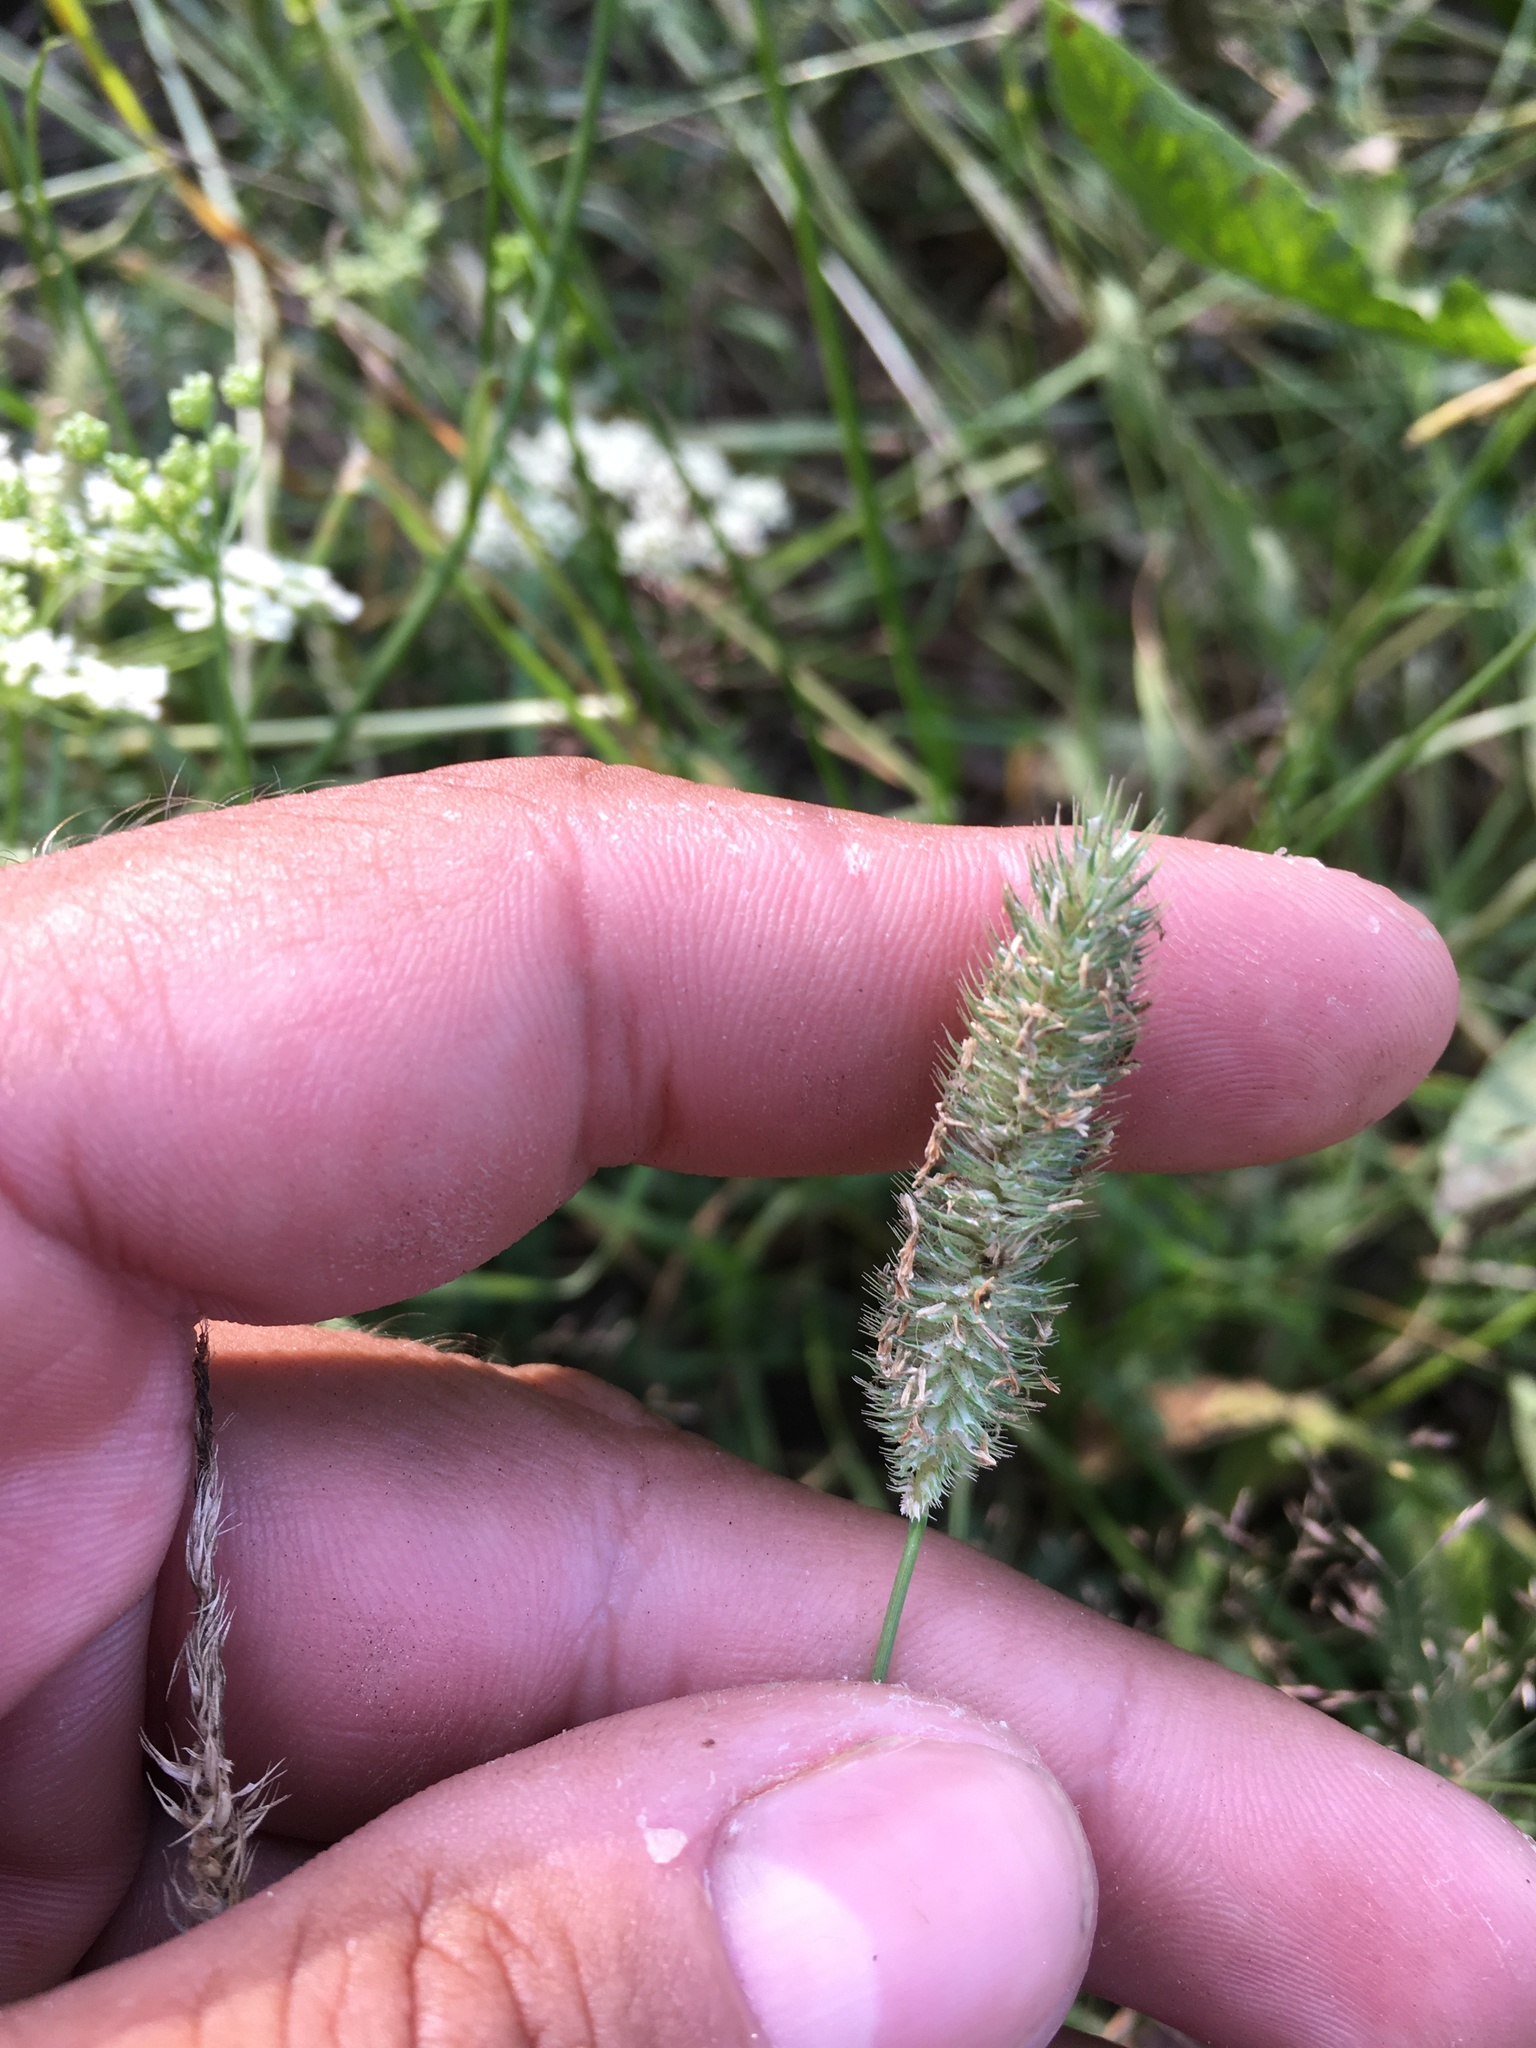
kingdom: Plantae
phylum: Tracheophyta
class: Liliopsida
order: Poales
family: Poaceae
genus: Phleum
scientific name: Phleum pratense
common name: Timothy grass
